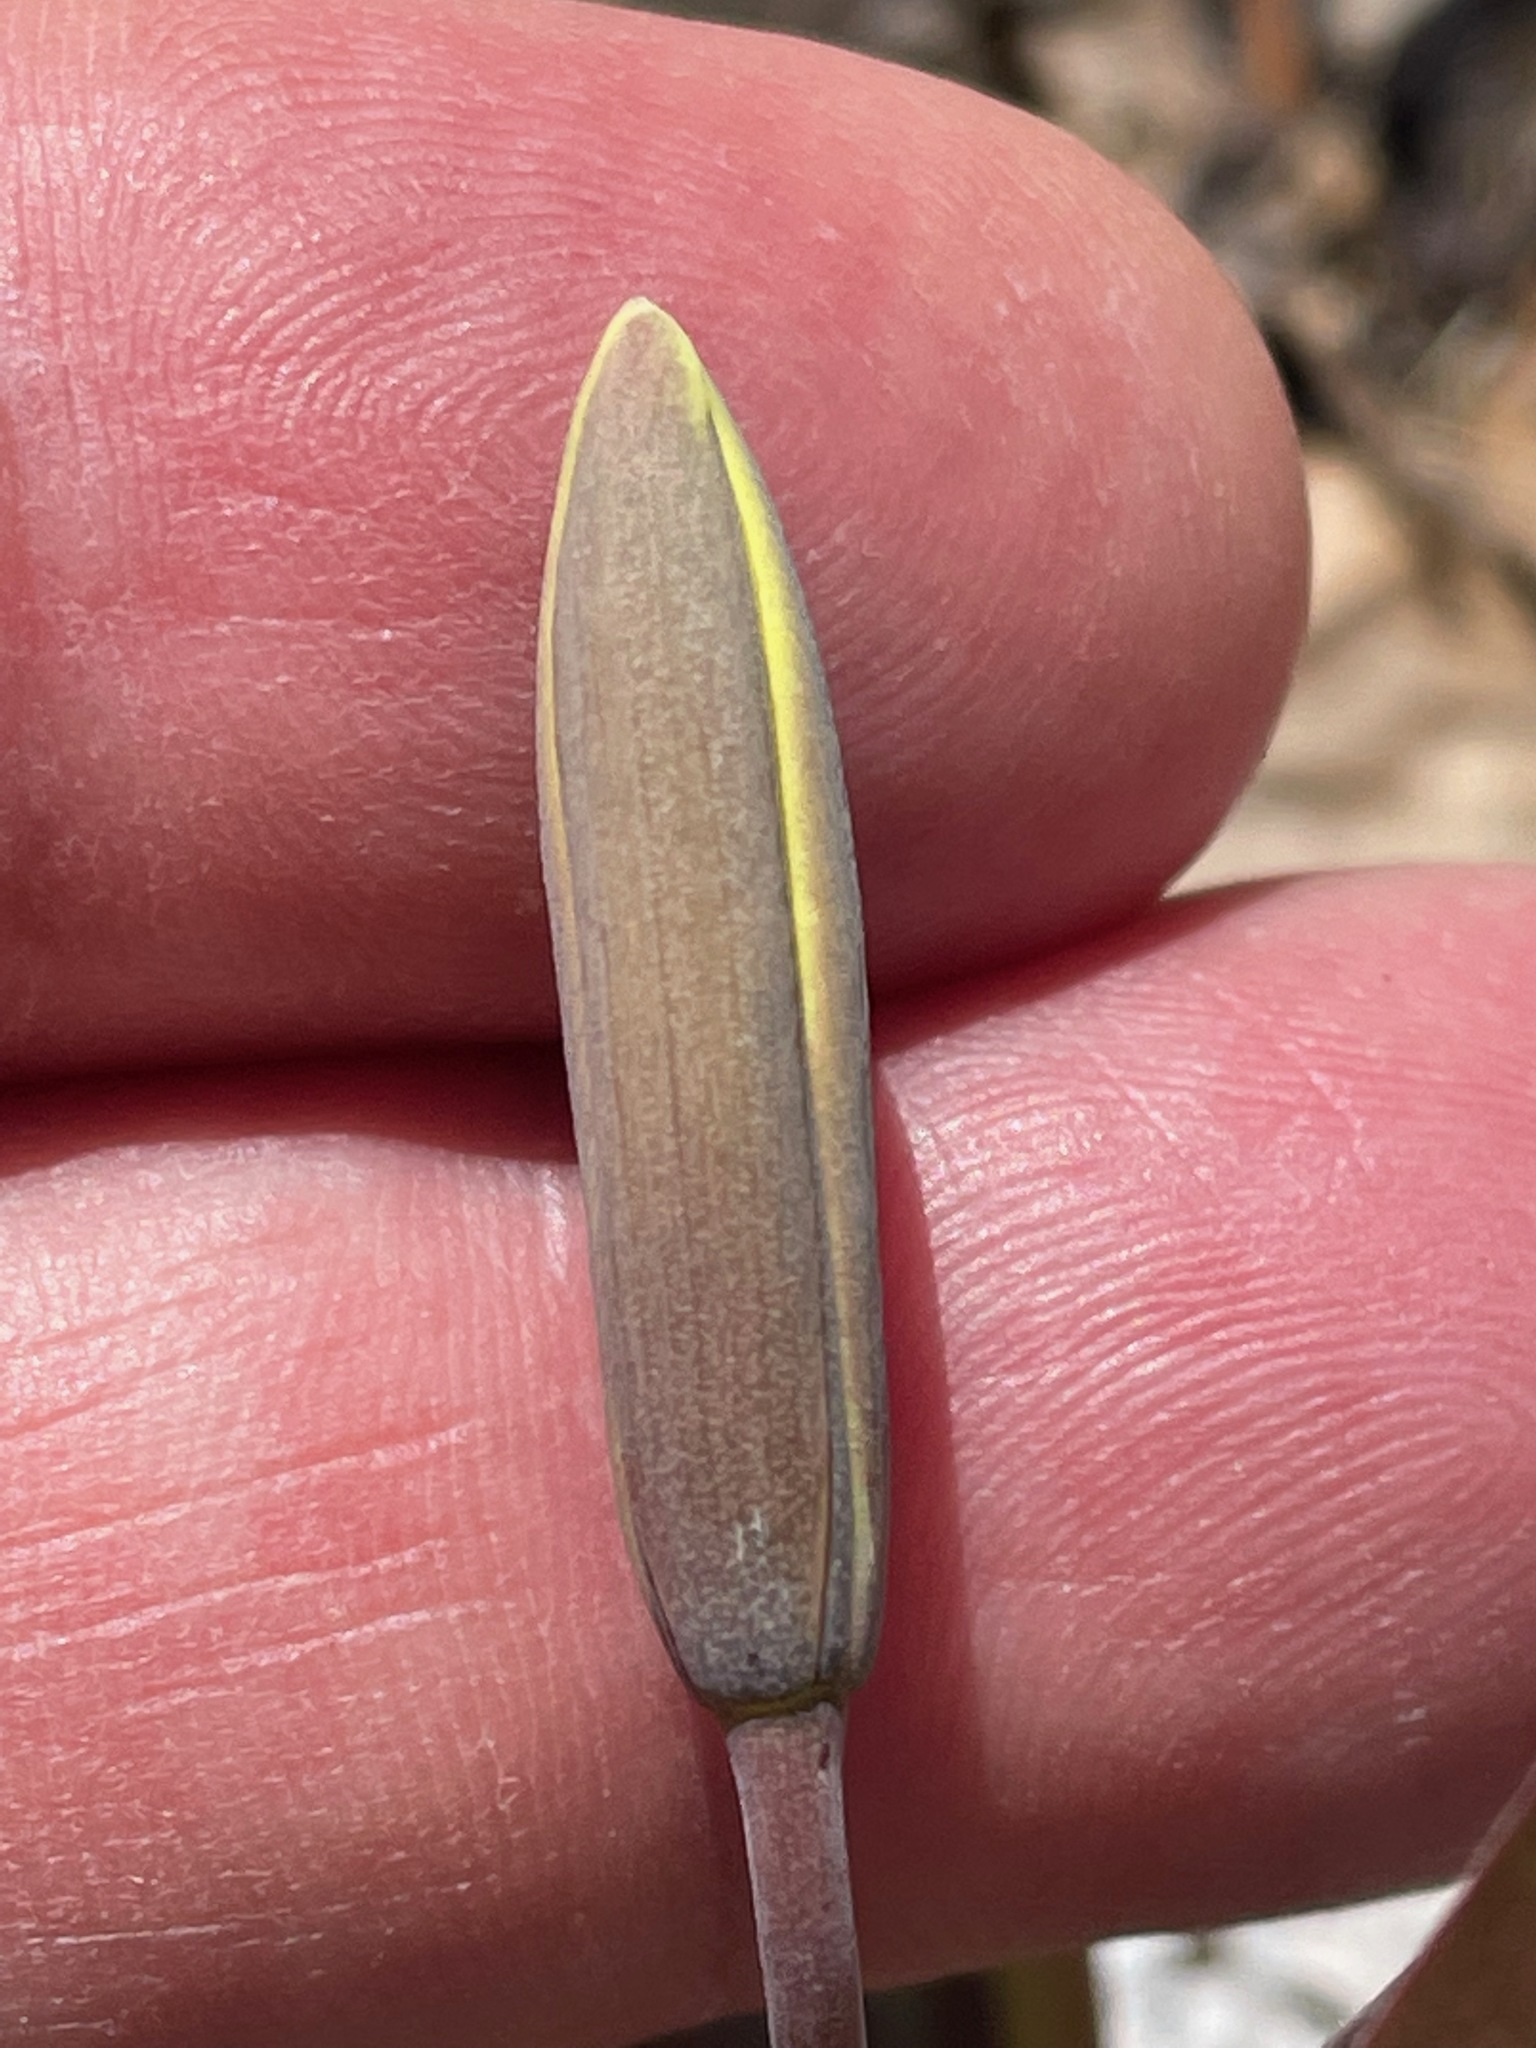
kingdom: Plantae
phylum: Tracheophyta
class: Liliopsida
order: Liliales
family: Liliaceae
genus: Erythronium
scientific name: Erythronium americanum
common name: Yellow adder's-tongue
